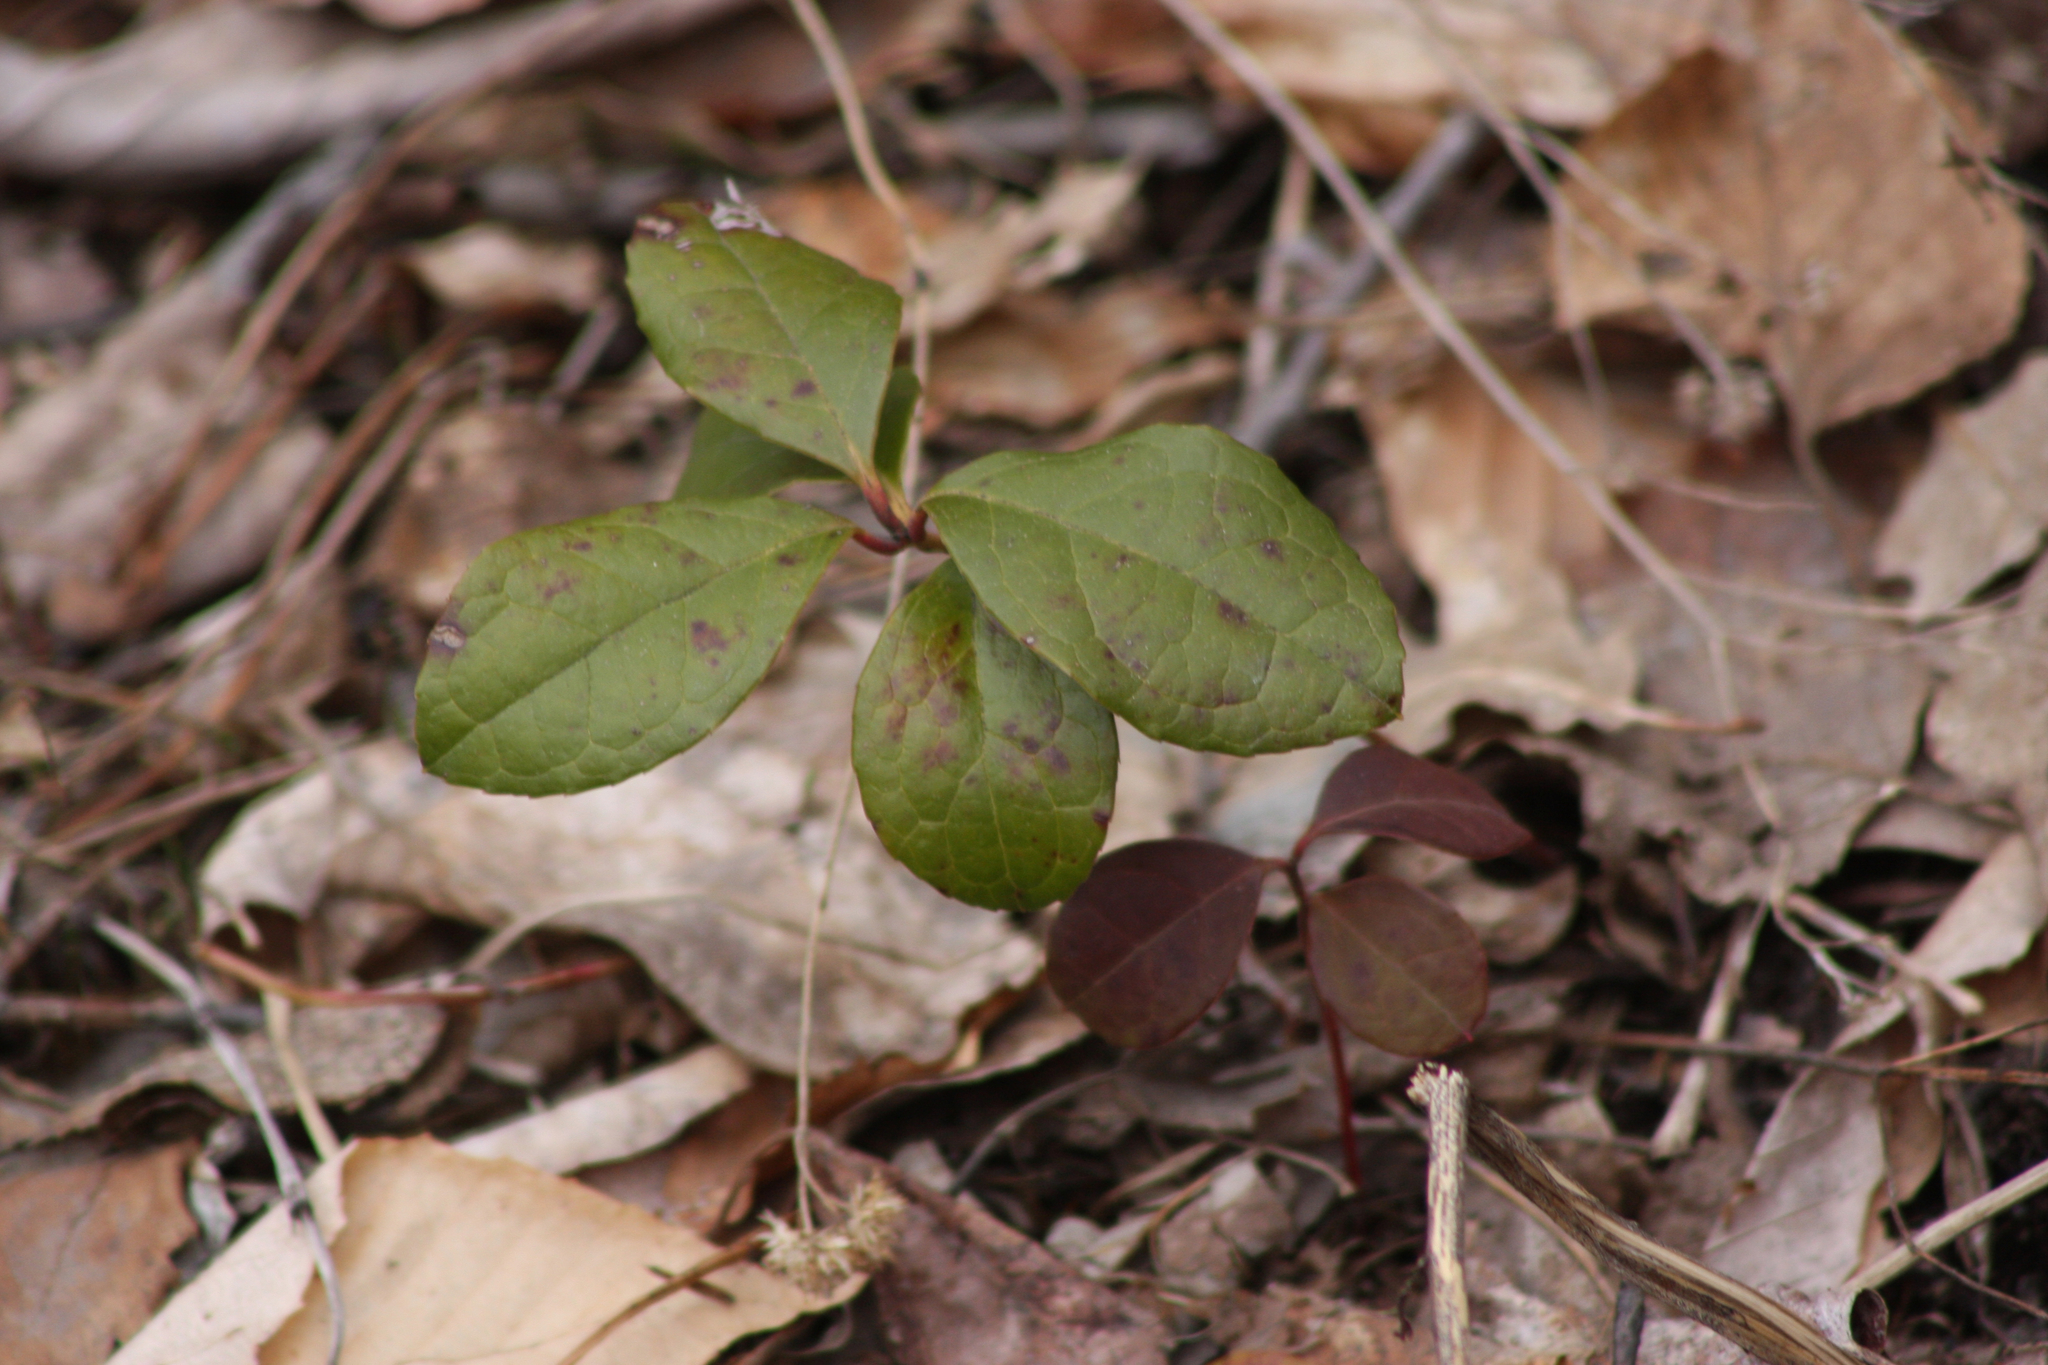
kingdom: Plantae
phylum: Tracheophyta
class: Magnoliopsida
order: Ericales
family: Ericaceae
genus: Gaultheria
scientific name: Gaultheria procumbens
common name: Checkerberry
